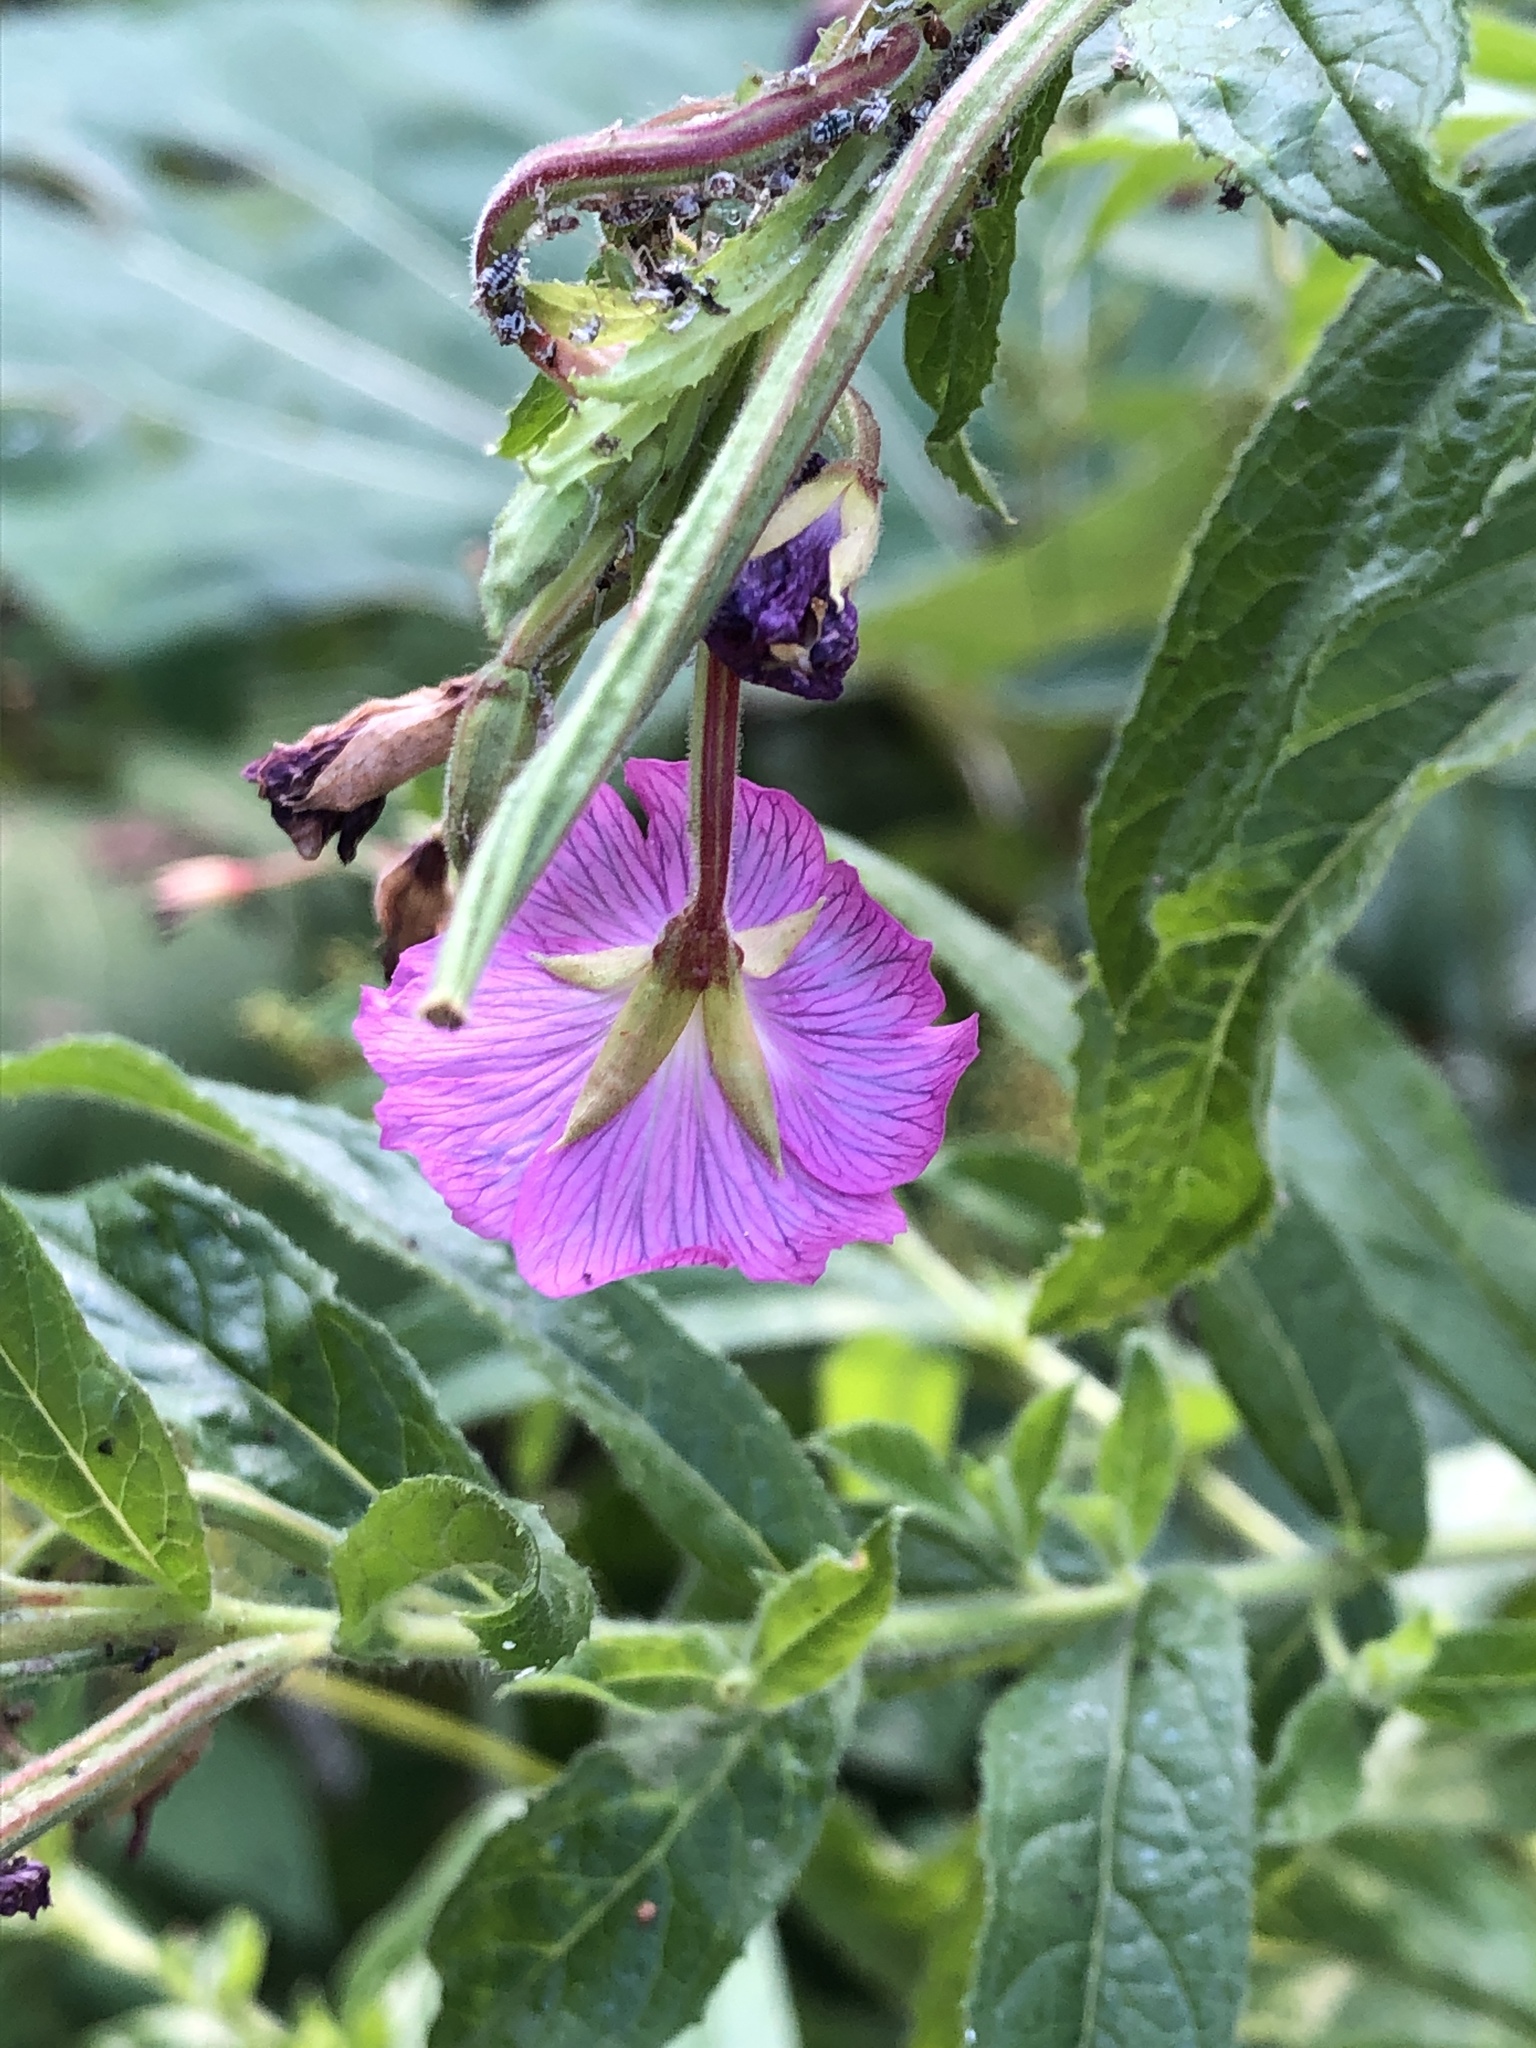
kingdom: Plantae
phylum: Tracheophyta
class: Magnoliopsida
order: Myrtales
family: Onagraceae
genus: Epilobium
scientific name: Epilobium hirsutum
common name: Great willowherb
